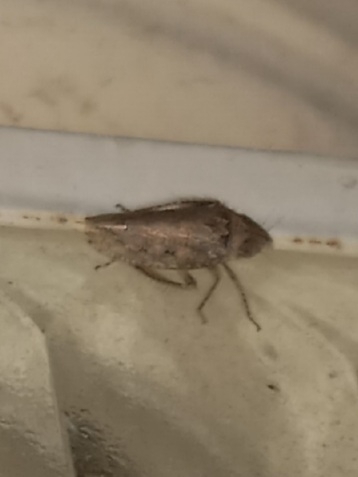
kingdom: Animalia
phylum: Arthropoda
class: Insecta
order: Hemiptera
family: Cicadellidae
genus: Curtara
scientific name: Curtara insularis
